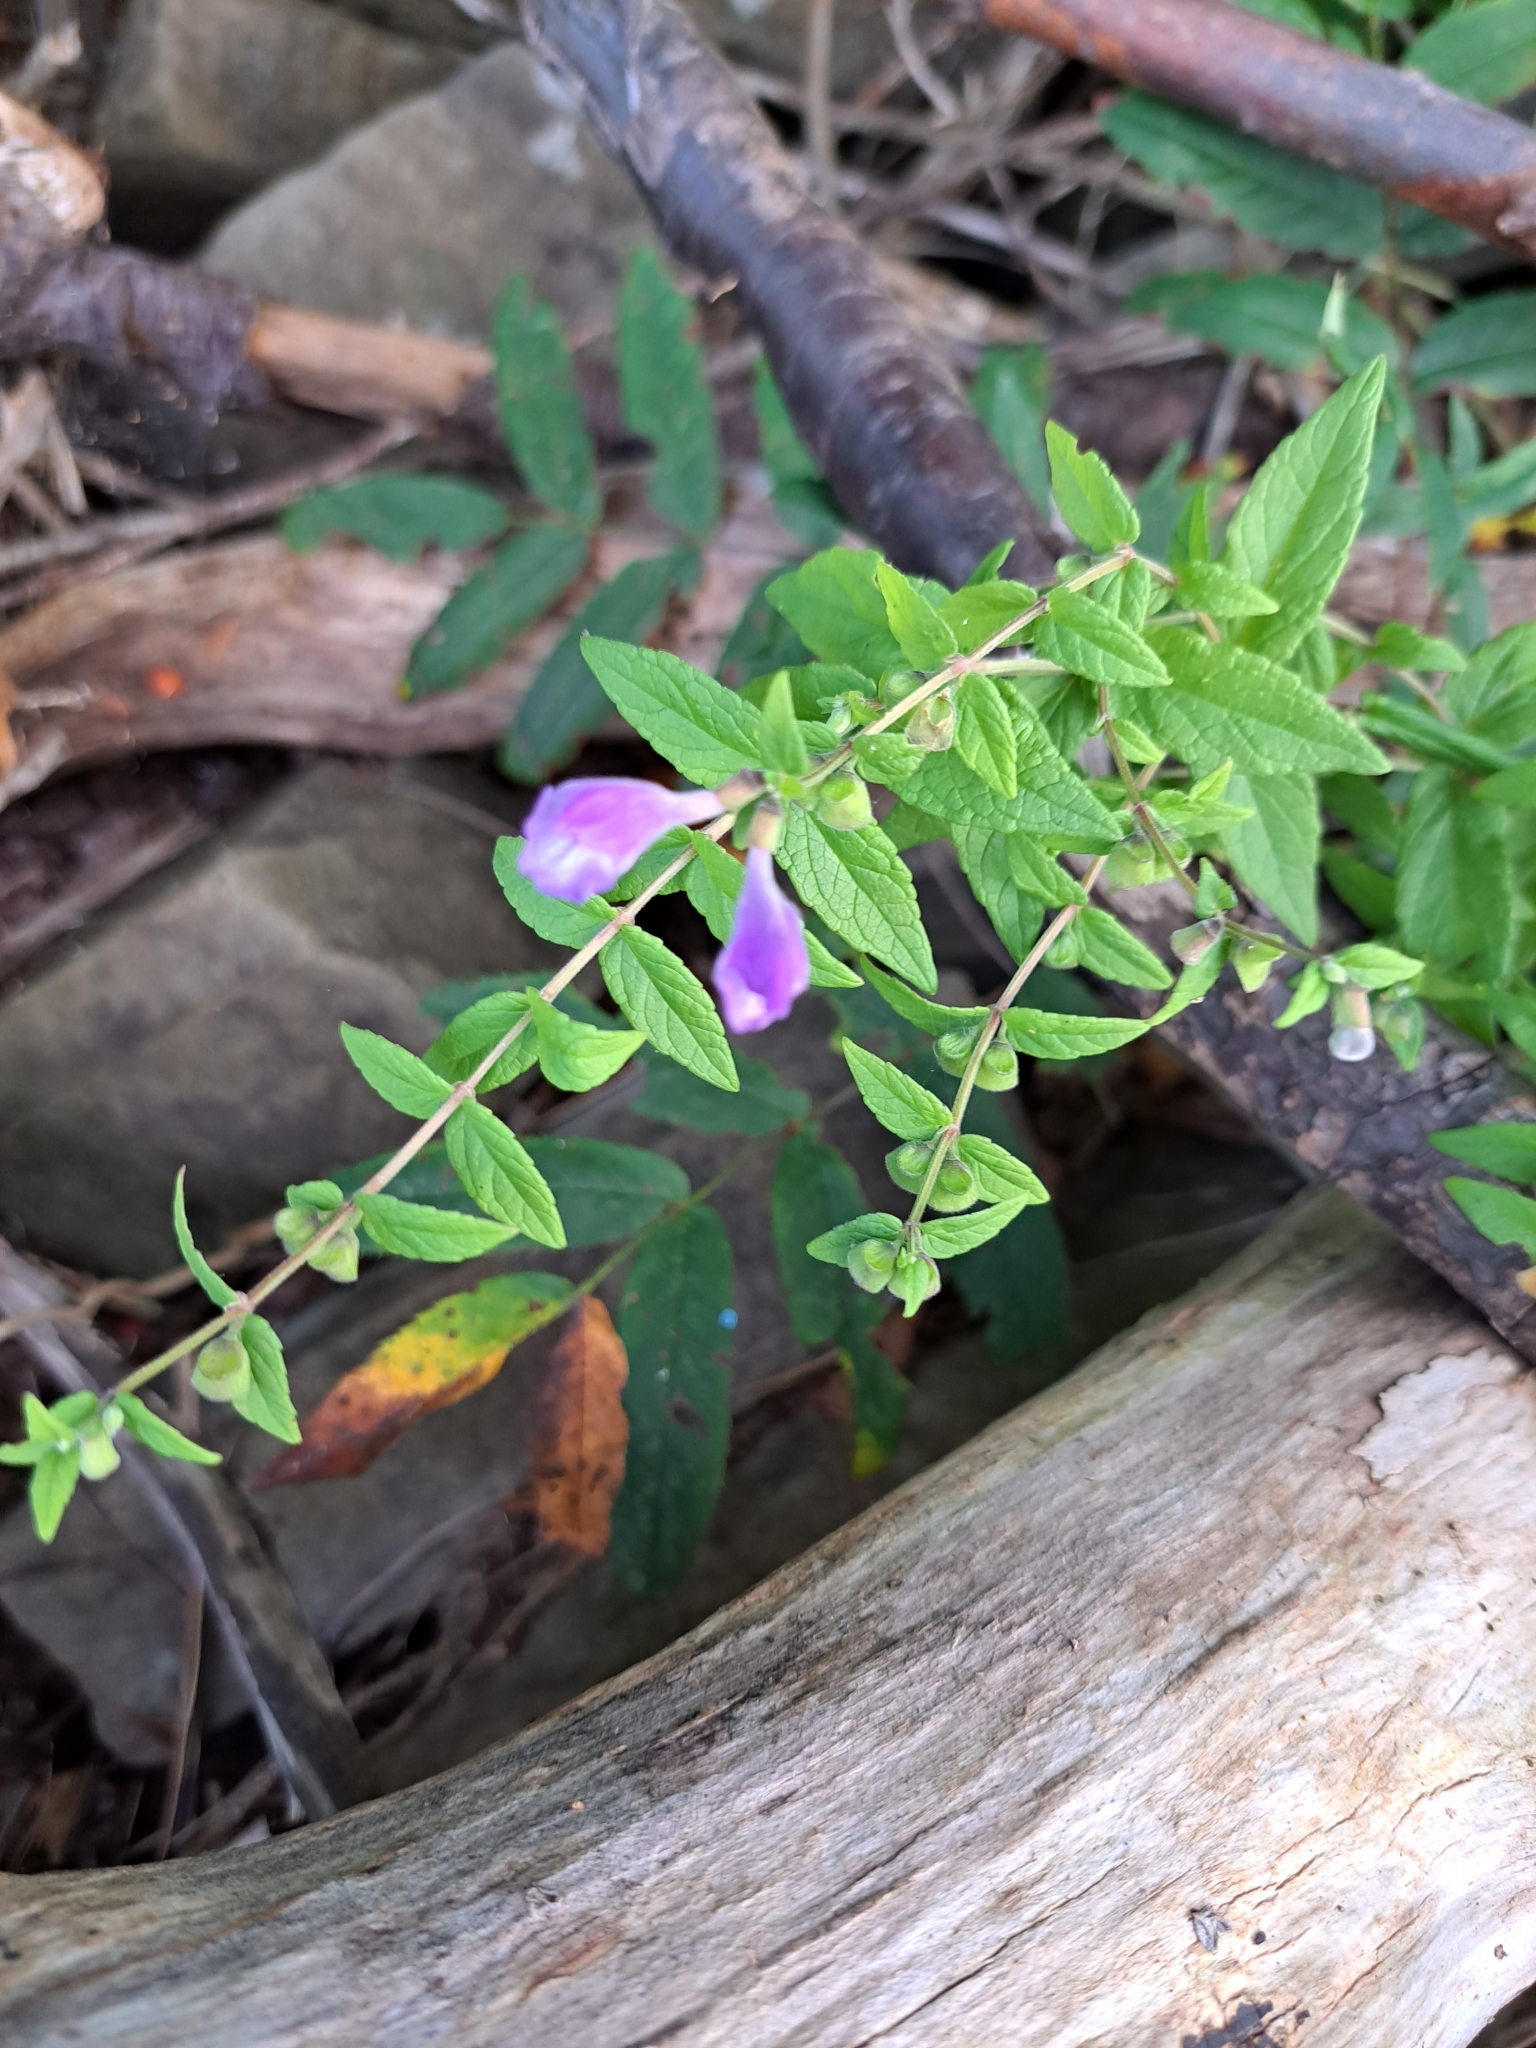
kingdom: Plantae
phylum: Tracheophyta
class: Magnoliopsida
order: Lamiales
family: Lamiaceae
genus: Scutellaria
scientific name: Scutellaria galericulata
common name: Skullcap
